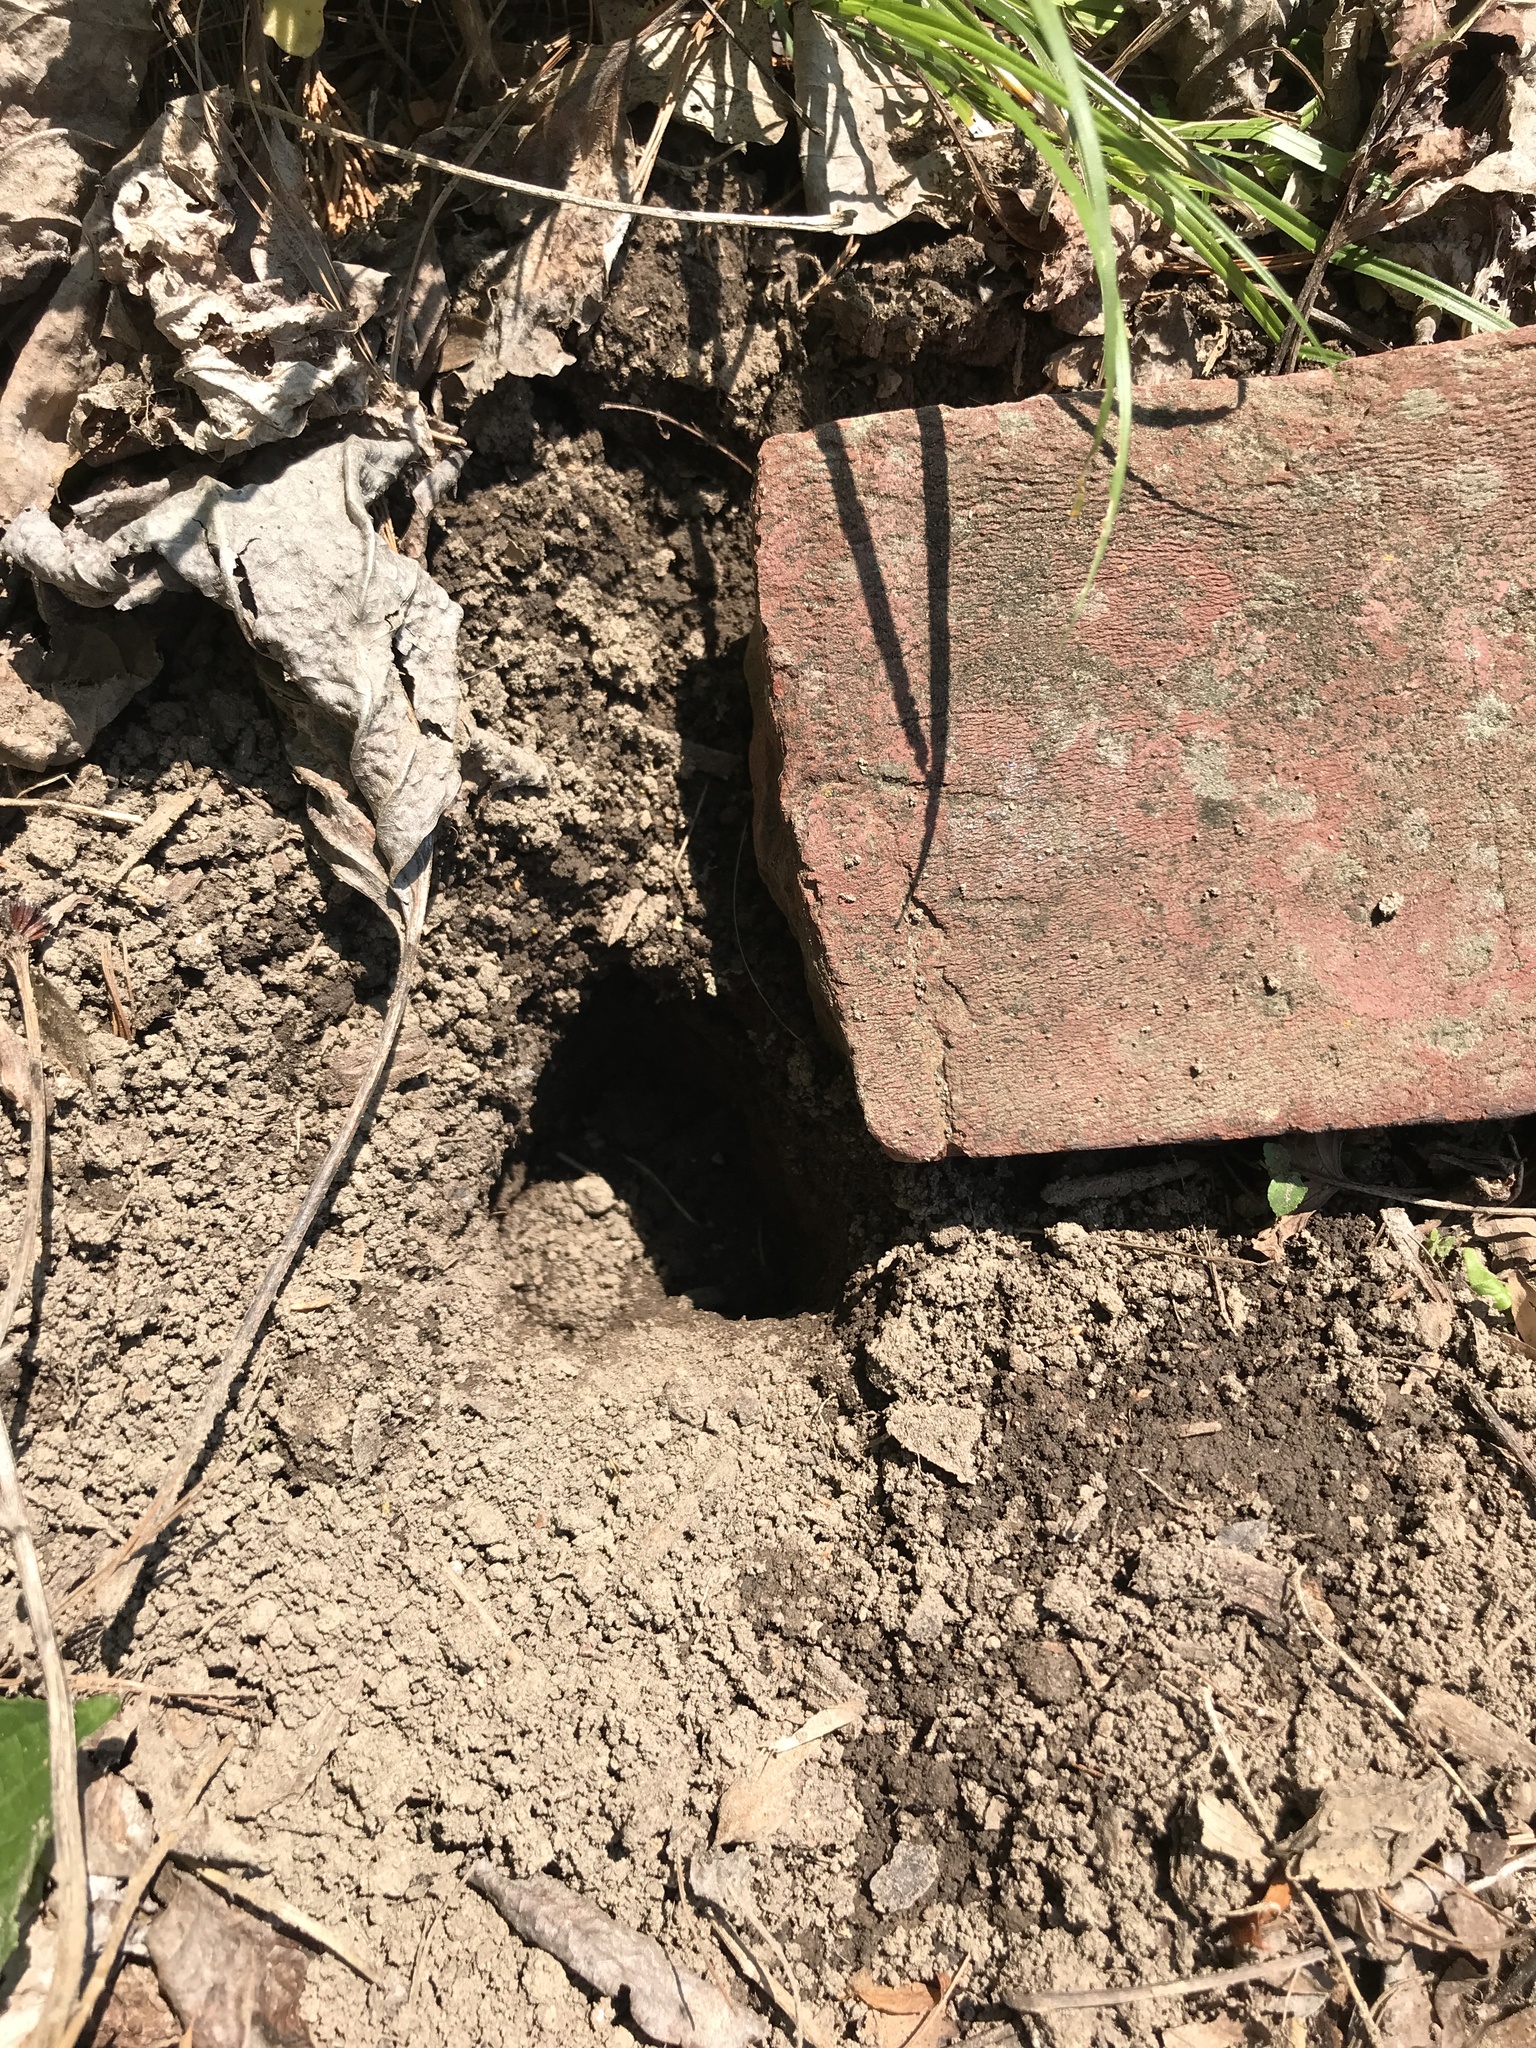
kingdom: Animalia
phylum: Arthropoda
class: Insecta
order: Hymenoptera
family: Vespidae
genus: Vespula
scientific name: Vespula
